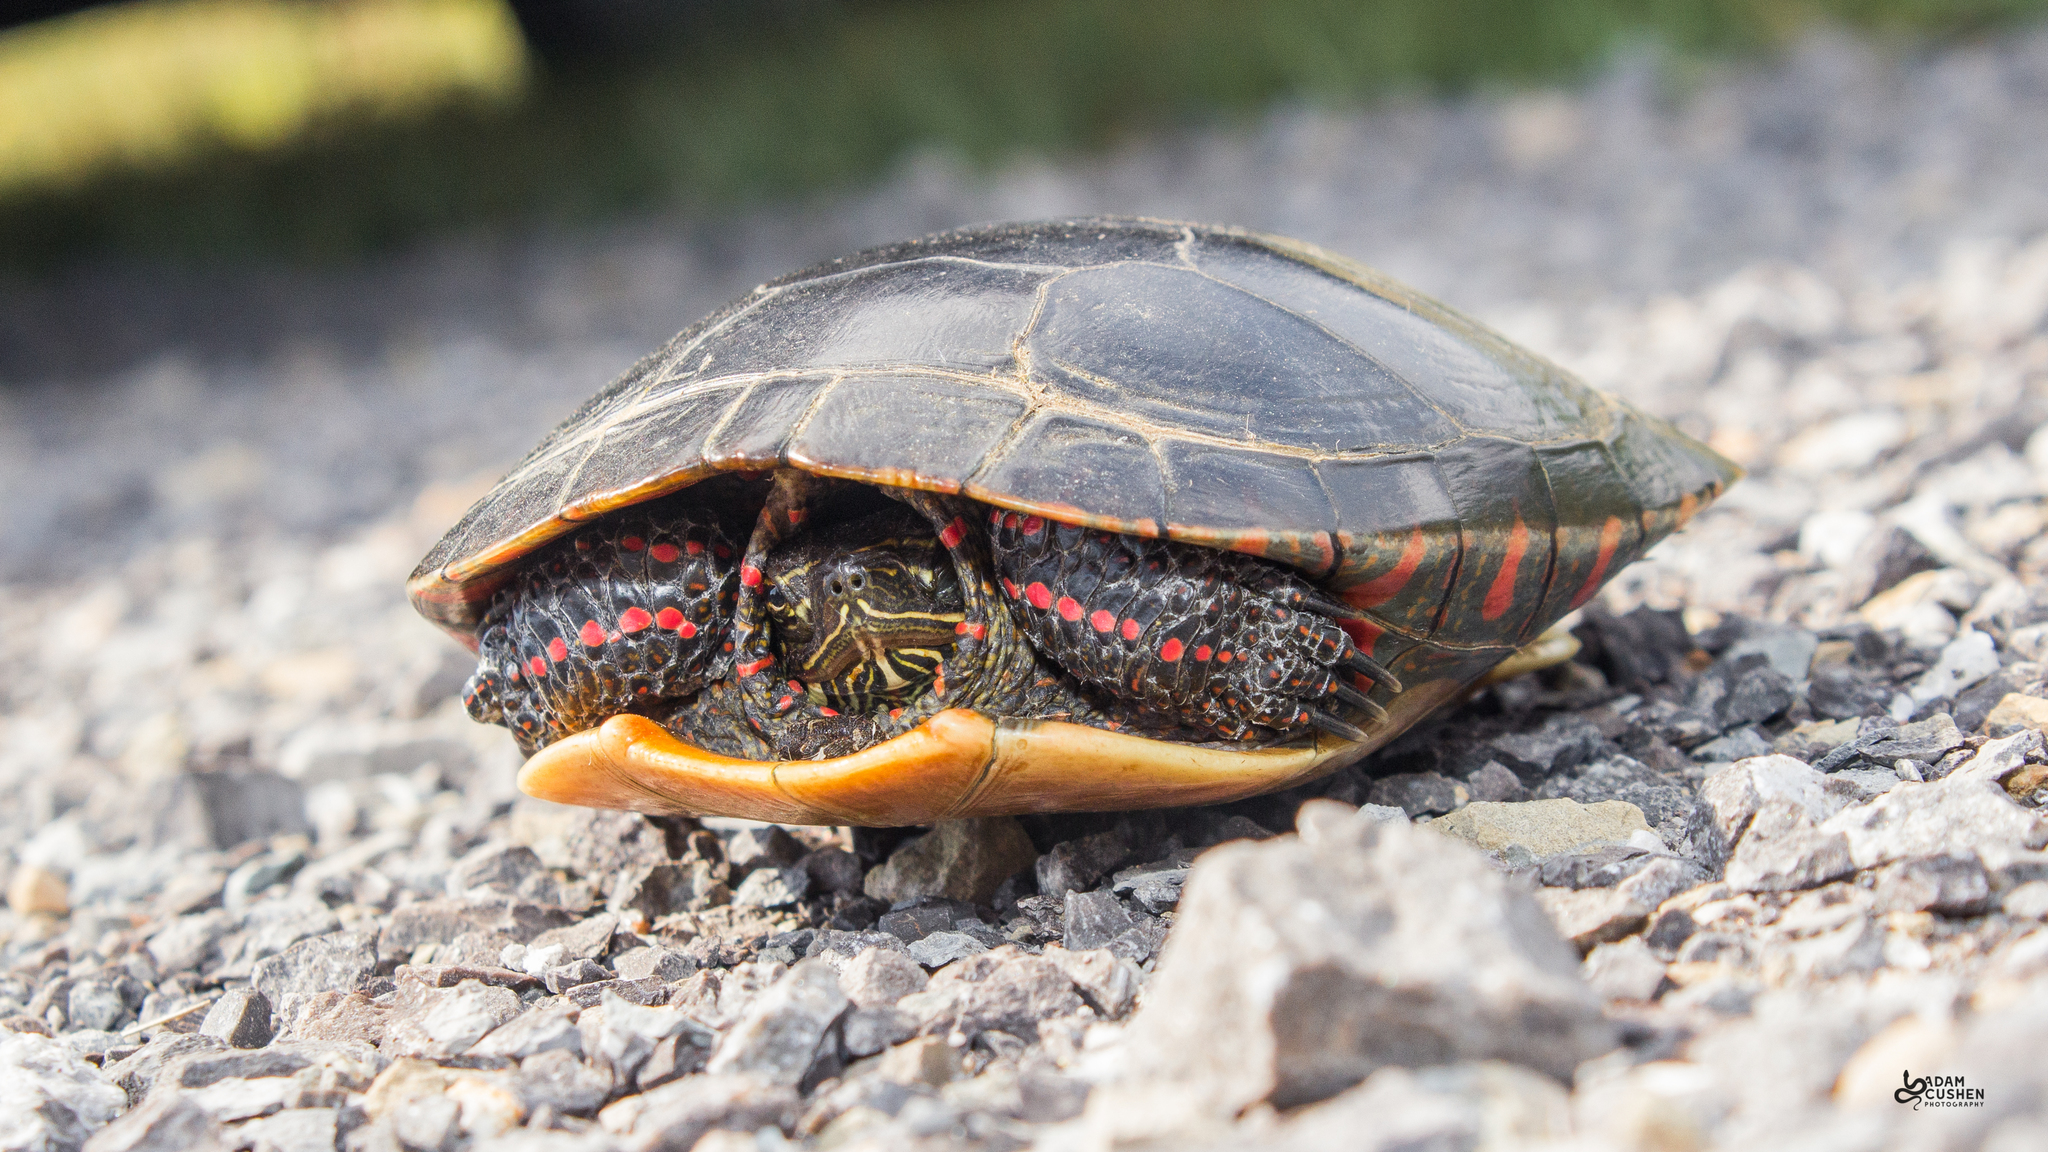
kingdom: Animalia
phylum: Chordata
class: Testudines
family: Emydidae
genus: Chrysemys
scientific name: Chrysemys picta
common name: Painted turtle
